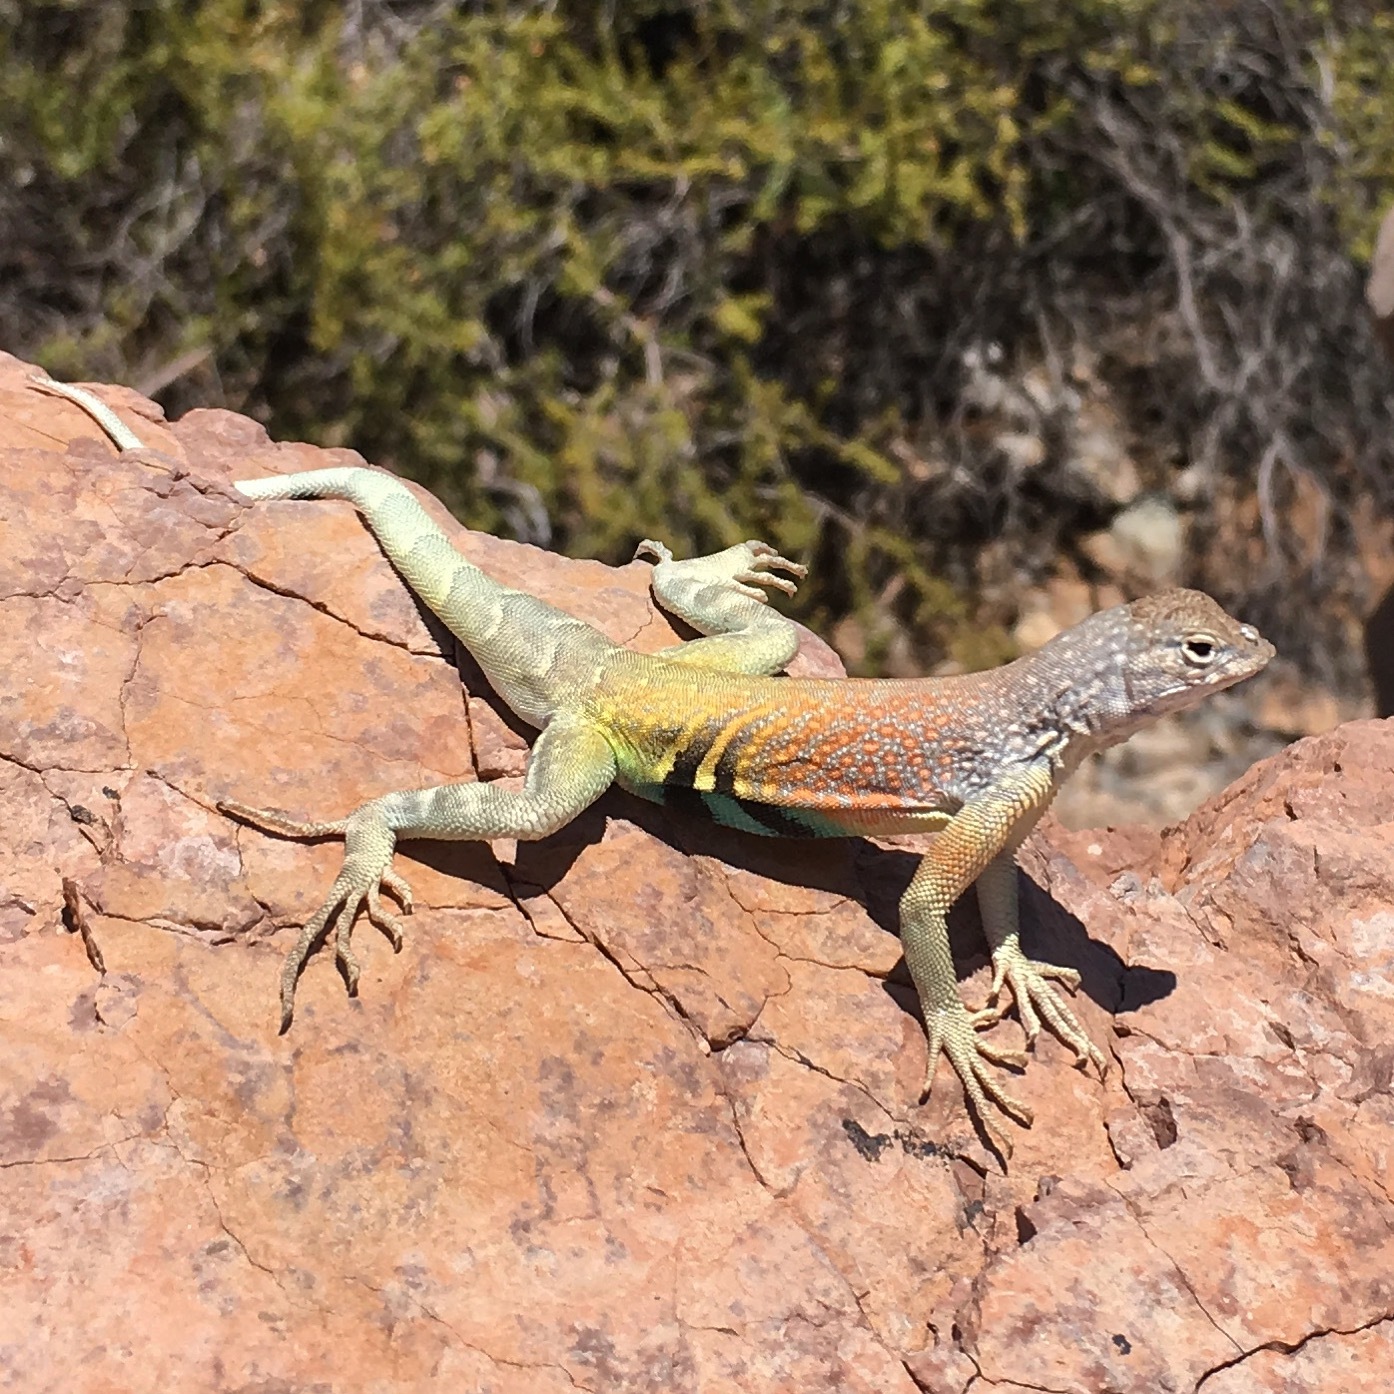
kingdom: Animalia
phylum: Chordata
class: Squamata
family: Phrynosomatidae
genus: Cophosaurus
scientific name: Cophosaurus texanus
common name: Greater earless lizard
